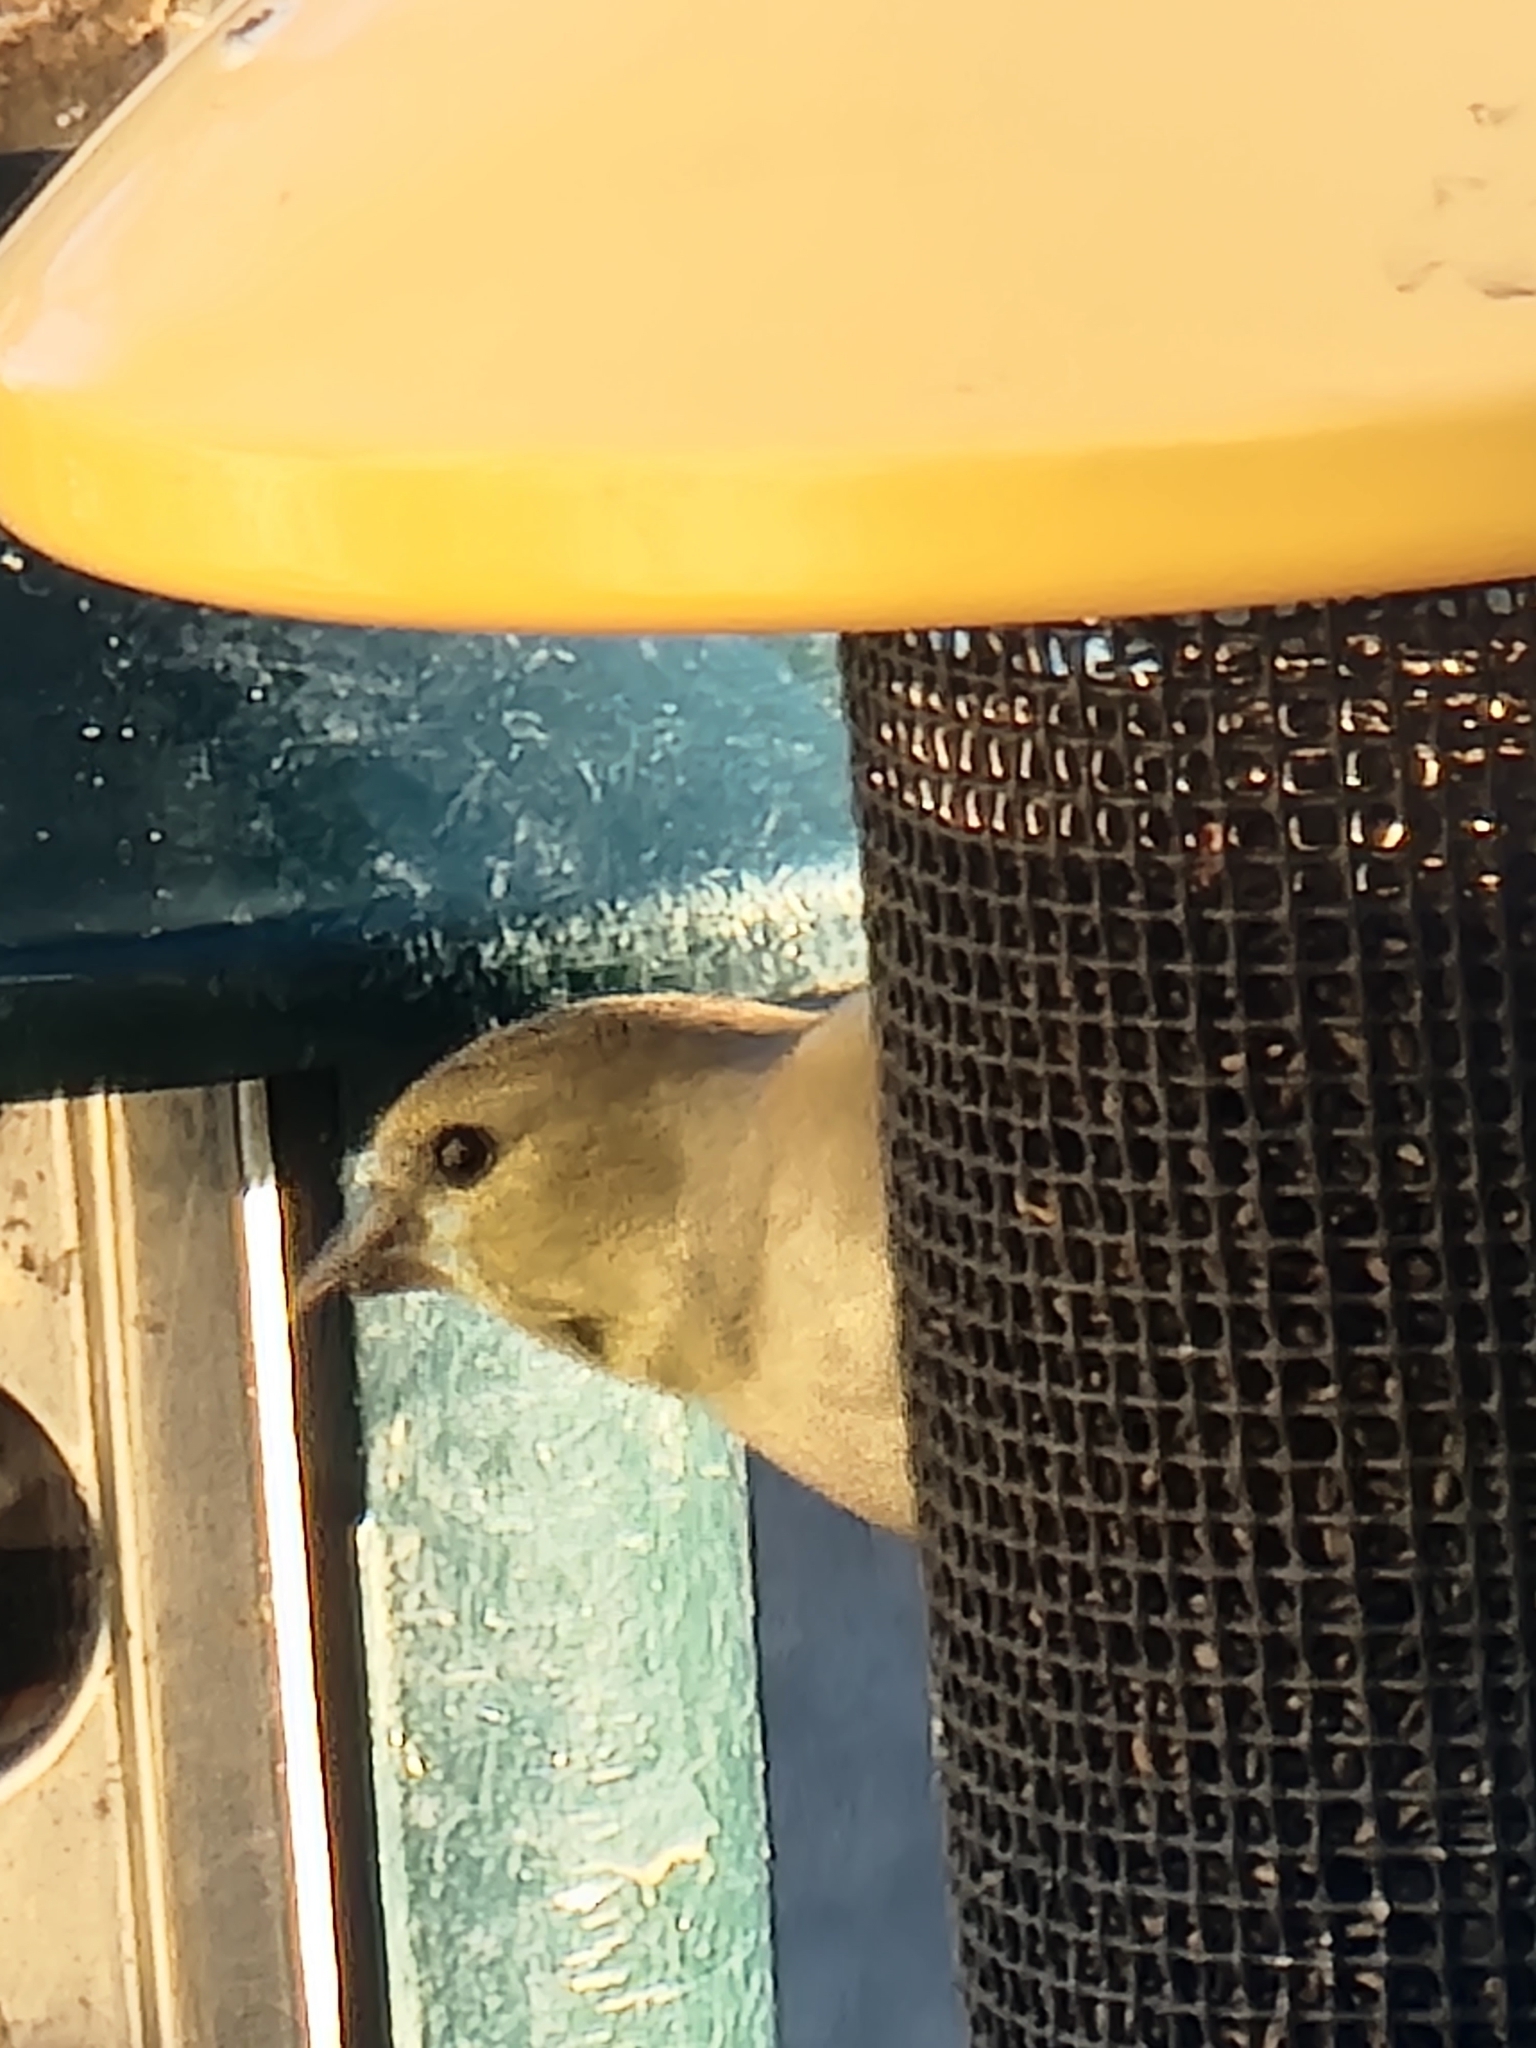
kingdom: Animalia
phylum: Chordata
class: Aves
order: Passeriformes
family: Fringillidae
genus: Spinus
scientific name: Spinus tristis
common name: American goldfinch
